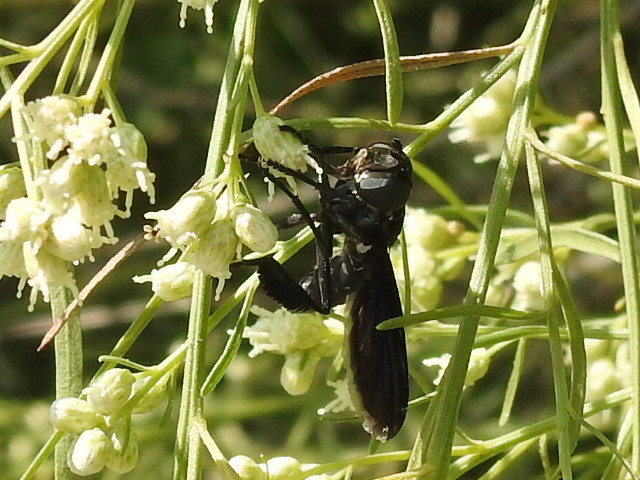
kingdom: Animalia
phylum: Arthropoda
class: Insecta
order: Diptera
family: Tachinidae
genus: Trichopoda
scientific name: Trichopoda lanipes
